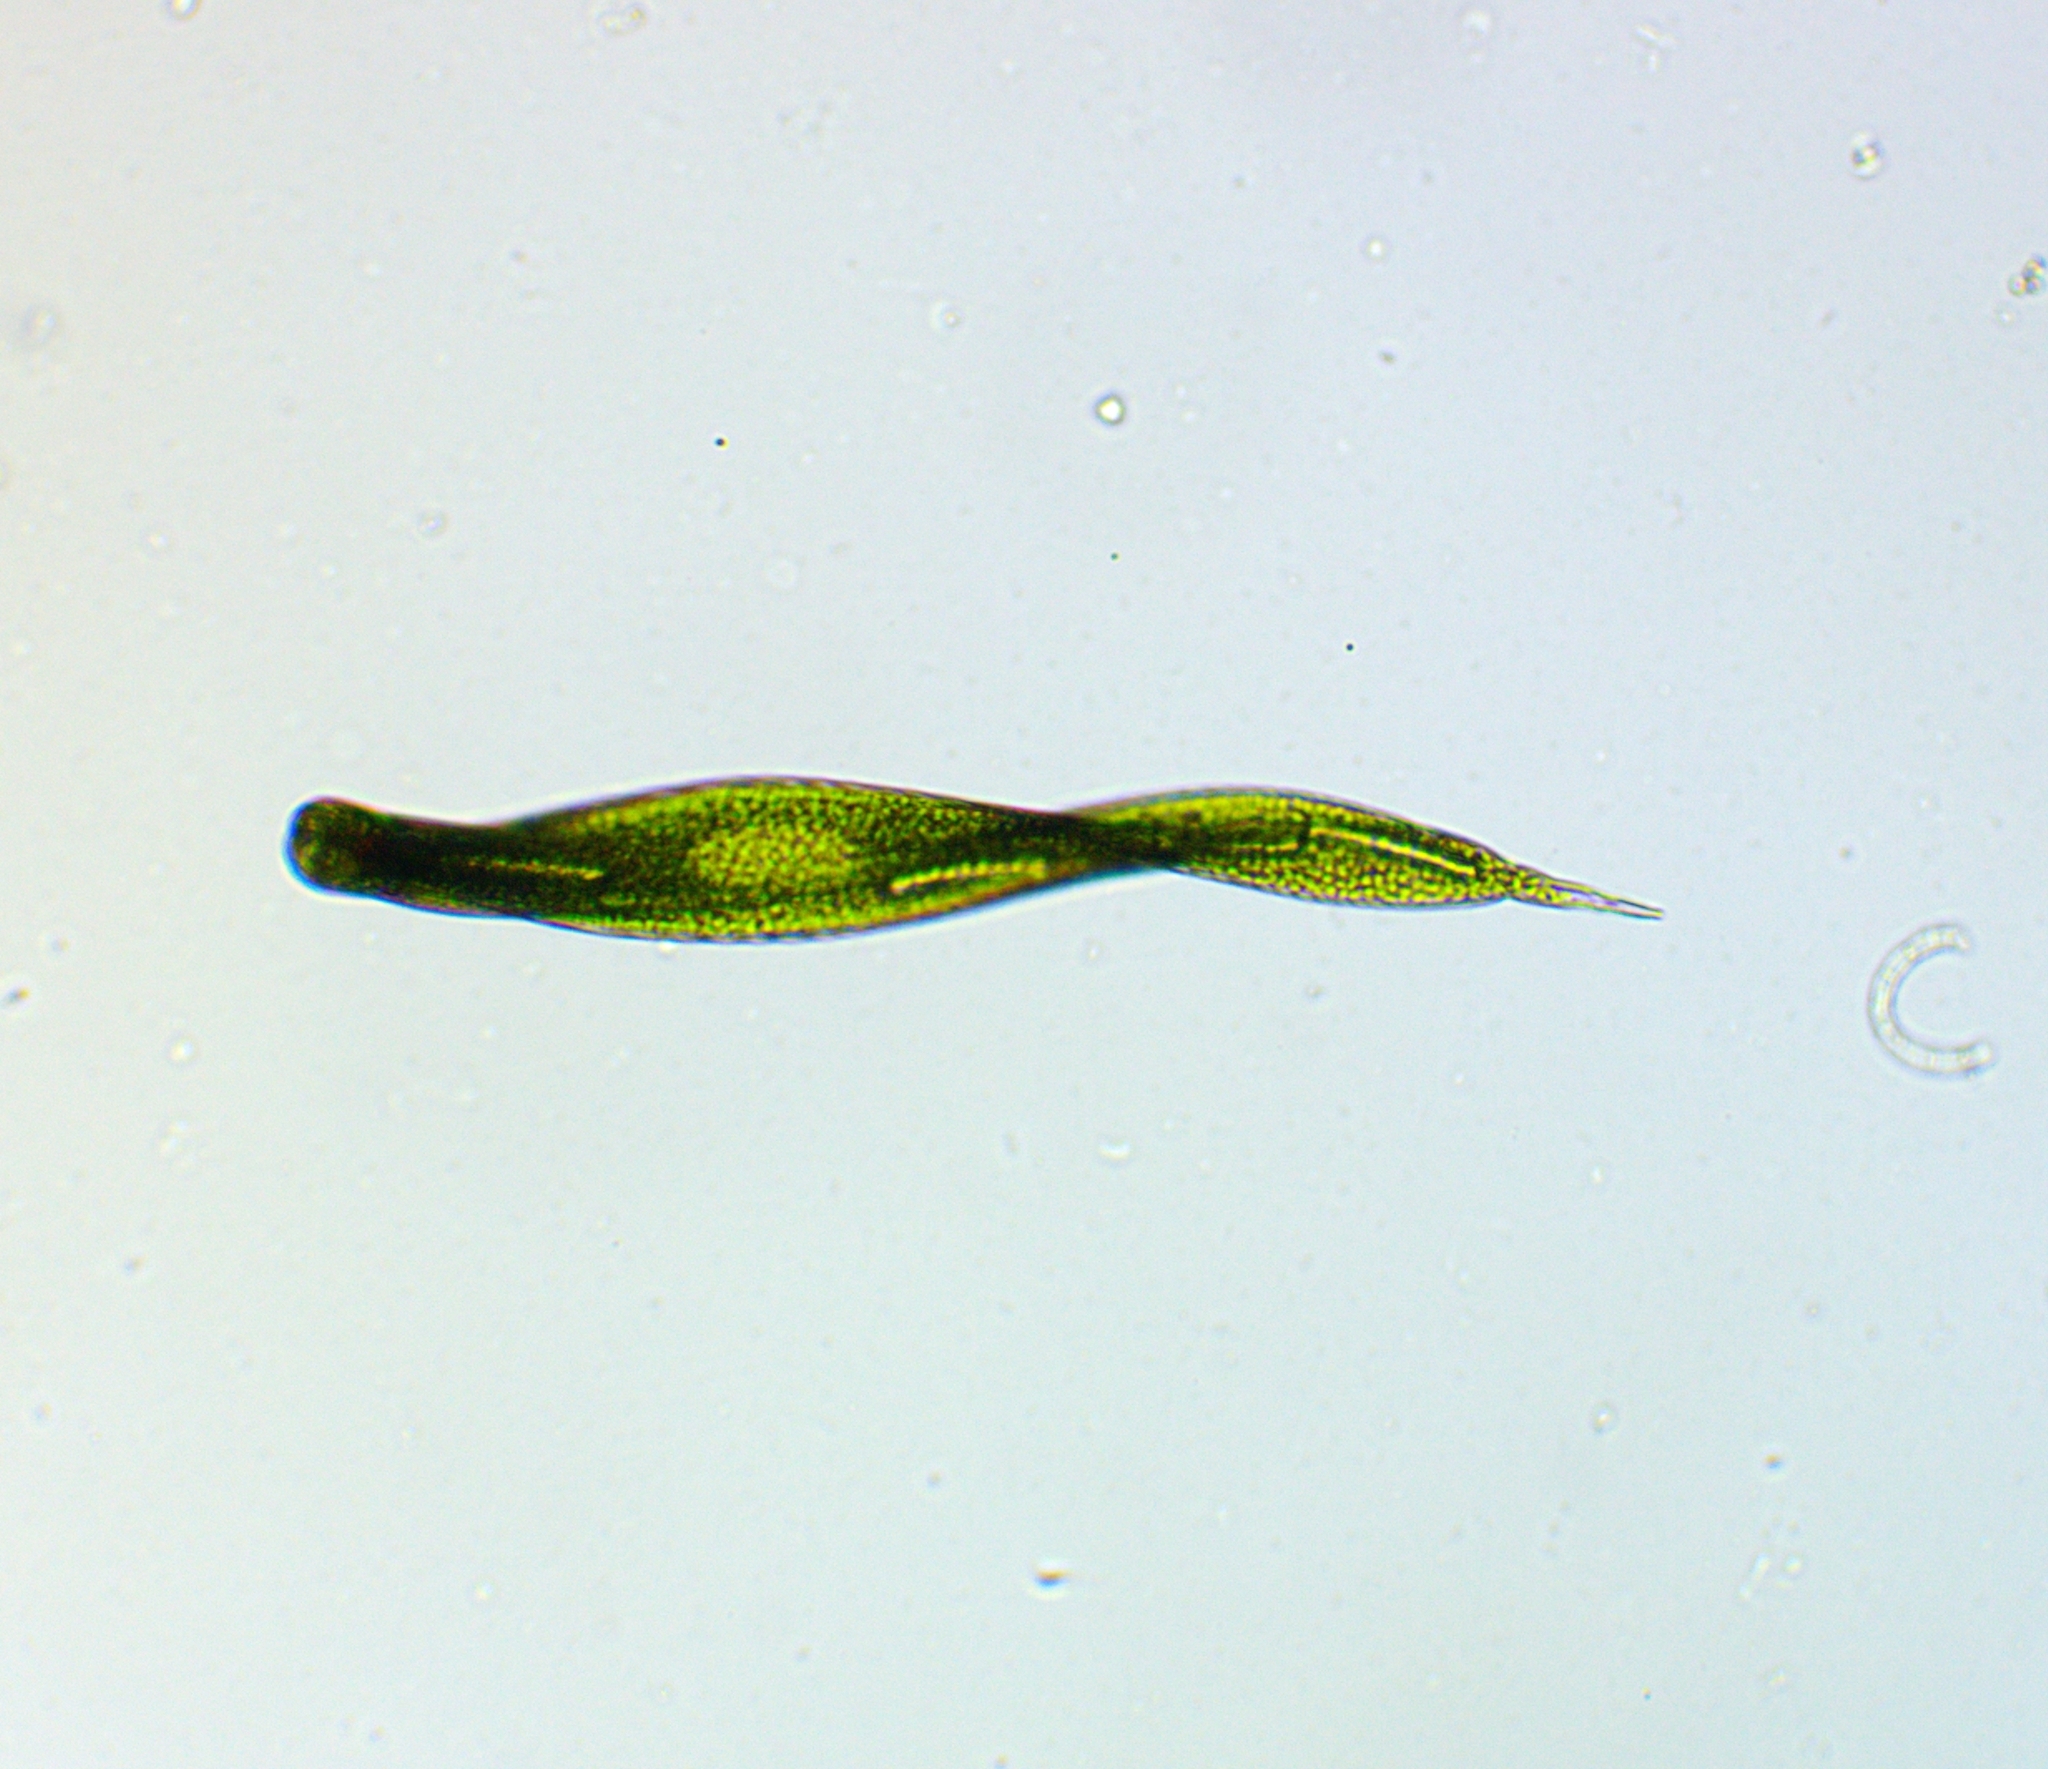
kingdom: Protozoa
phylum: Euglenozoa
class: Euglenoidea
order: Euglenida
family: Phacidae
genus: Lepocinclis
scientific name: Lepocinclis helicoidea
